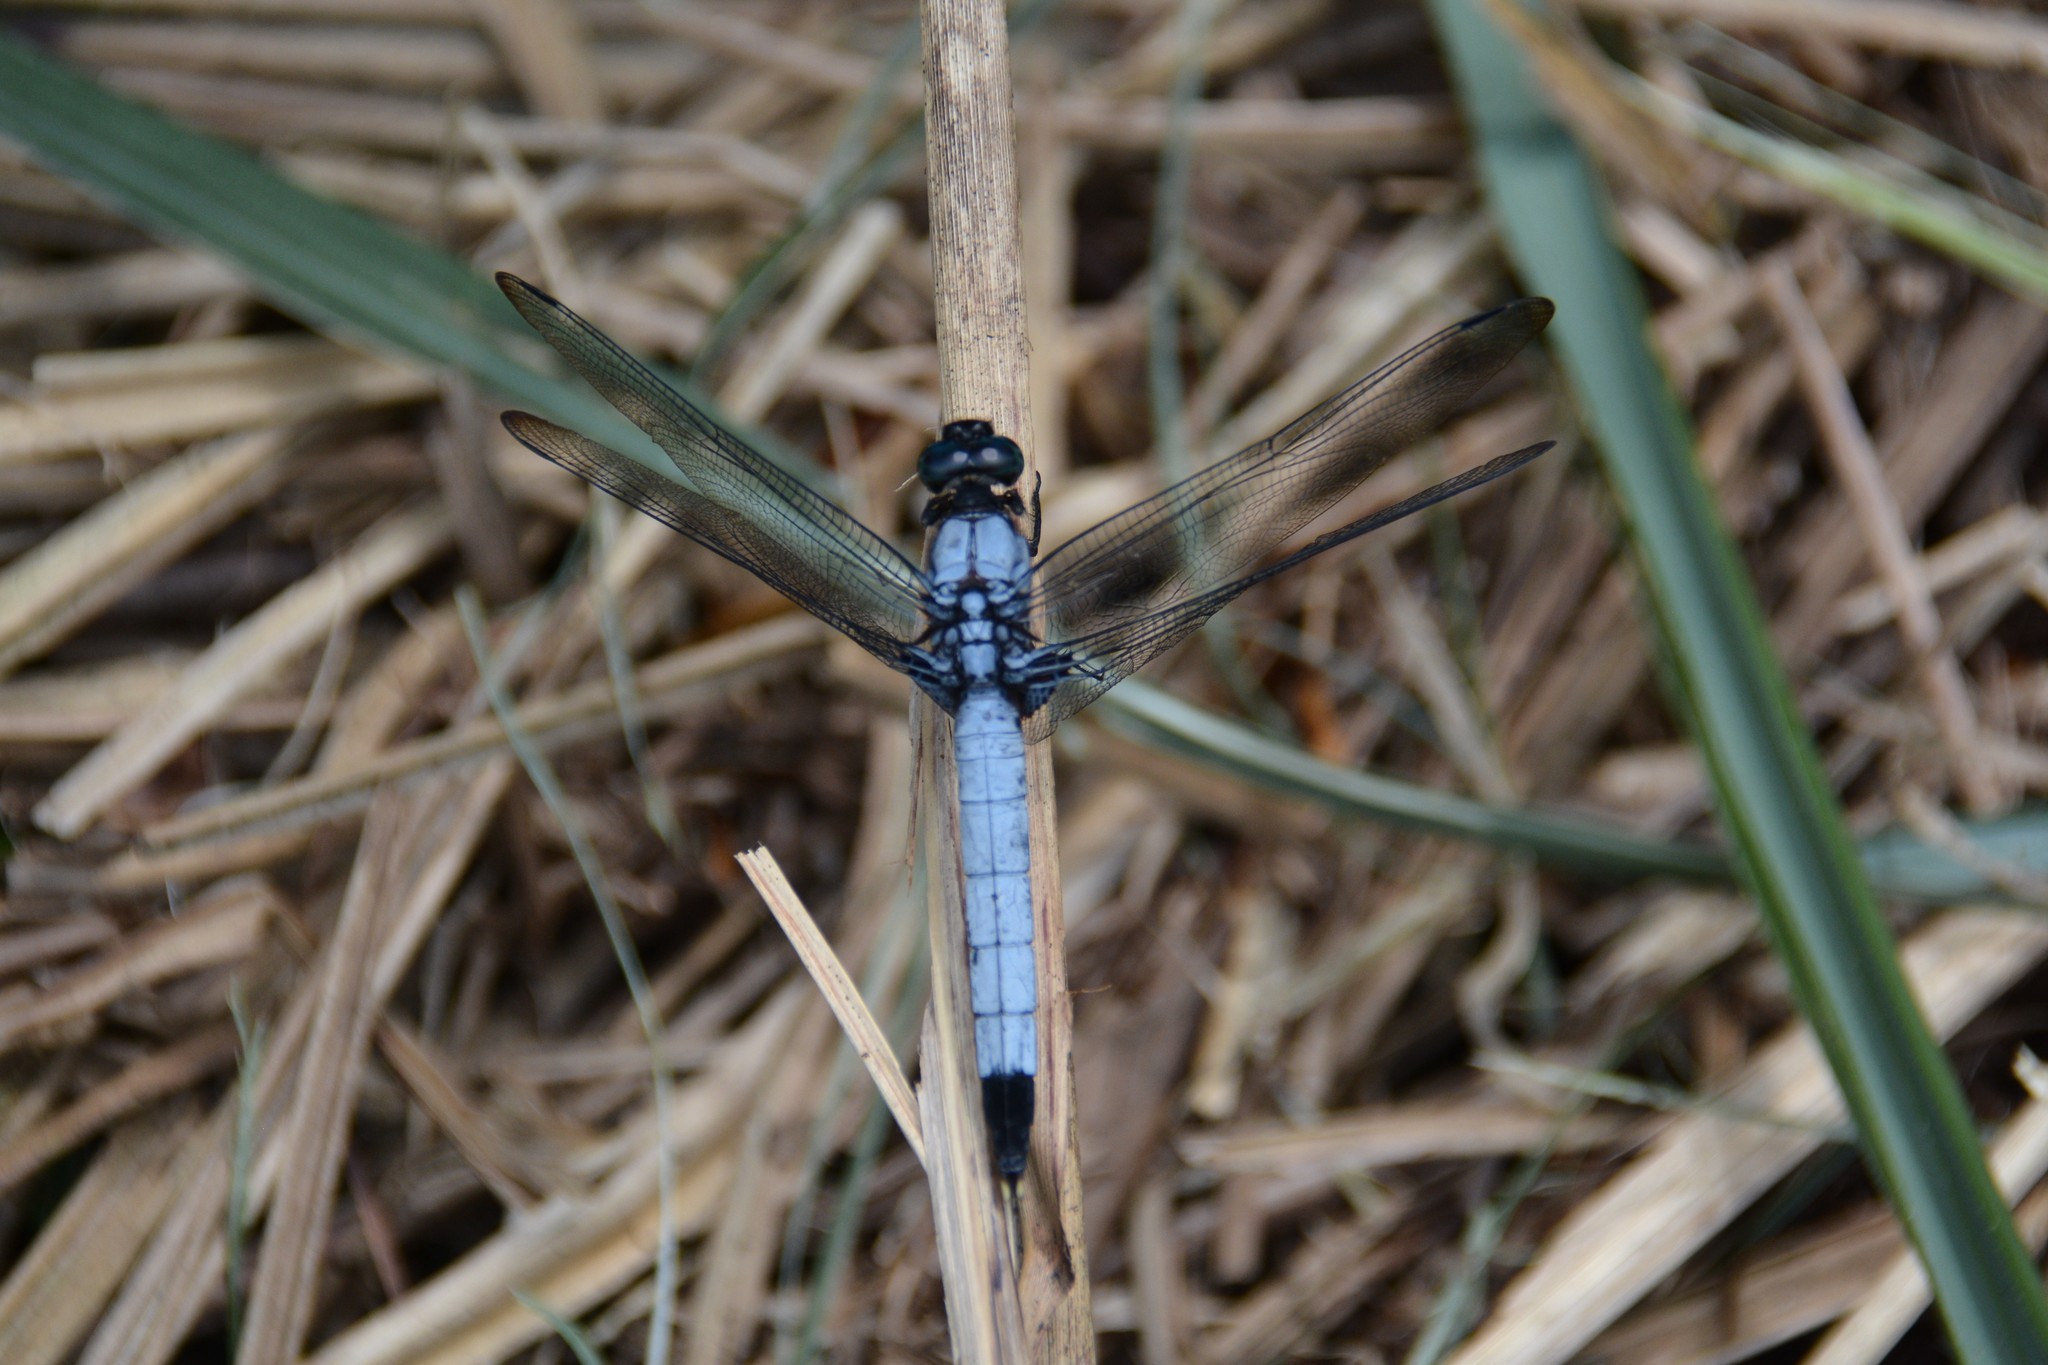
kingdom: Animalia
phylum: Arthropoda
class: Insecta
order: Odonata
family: Libellulidae
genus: Orthetrum
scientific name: Orthetrum melania
